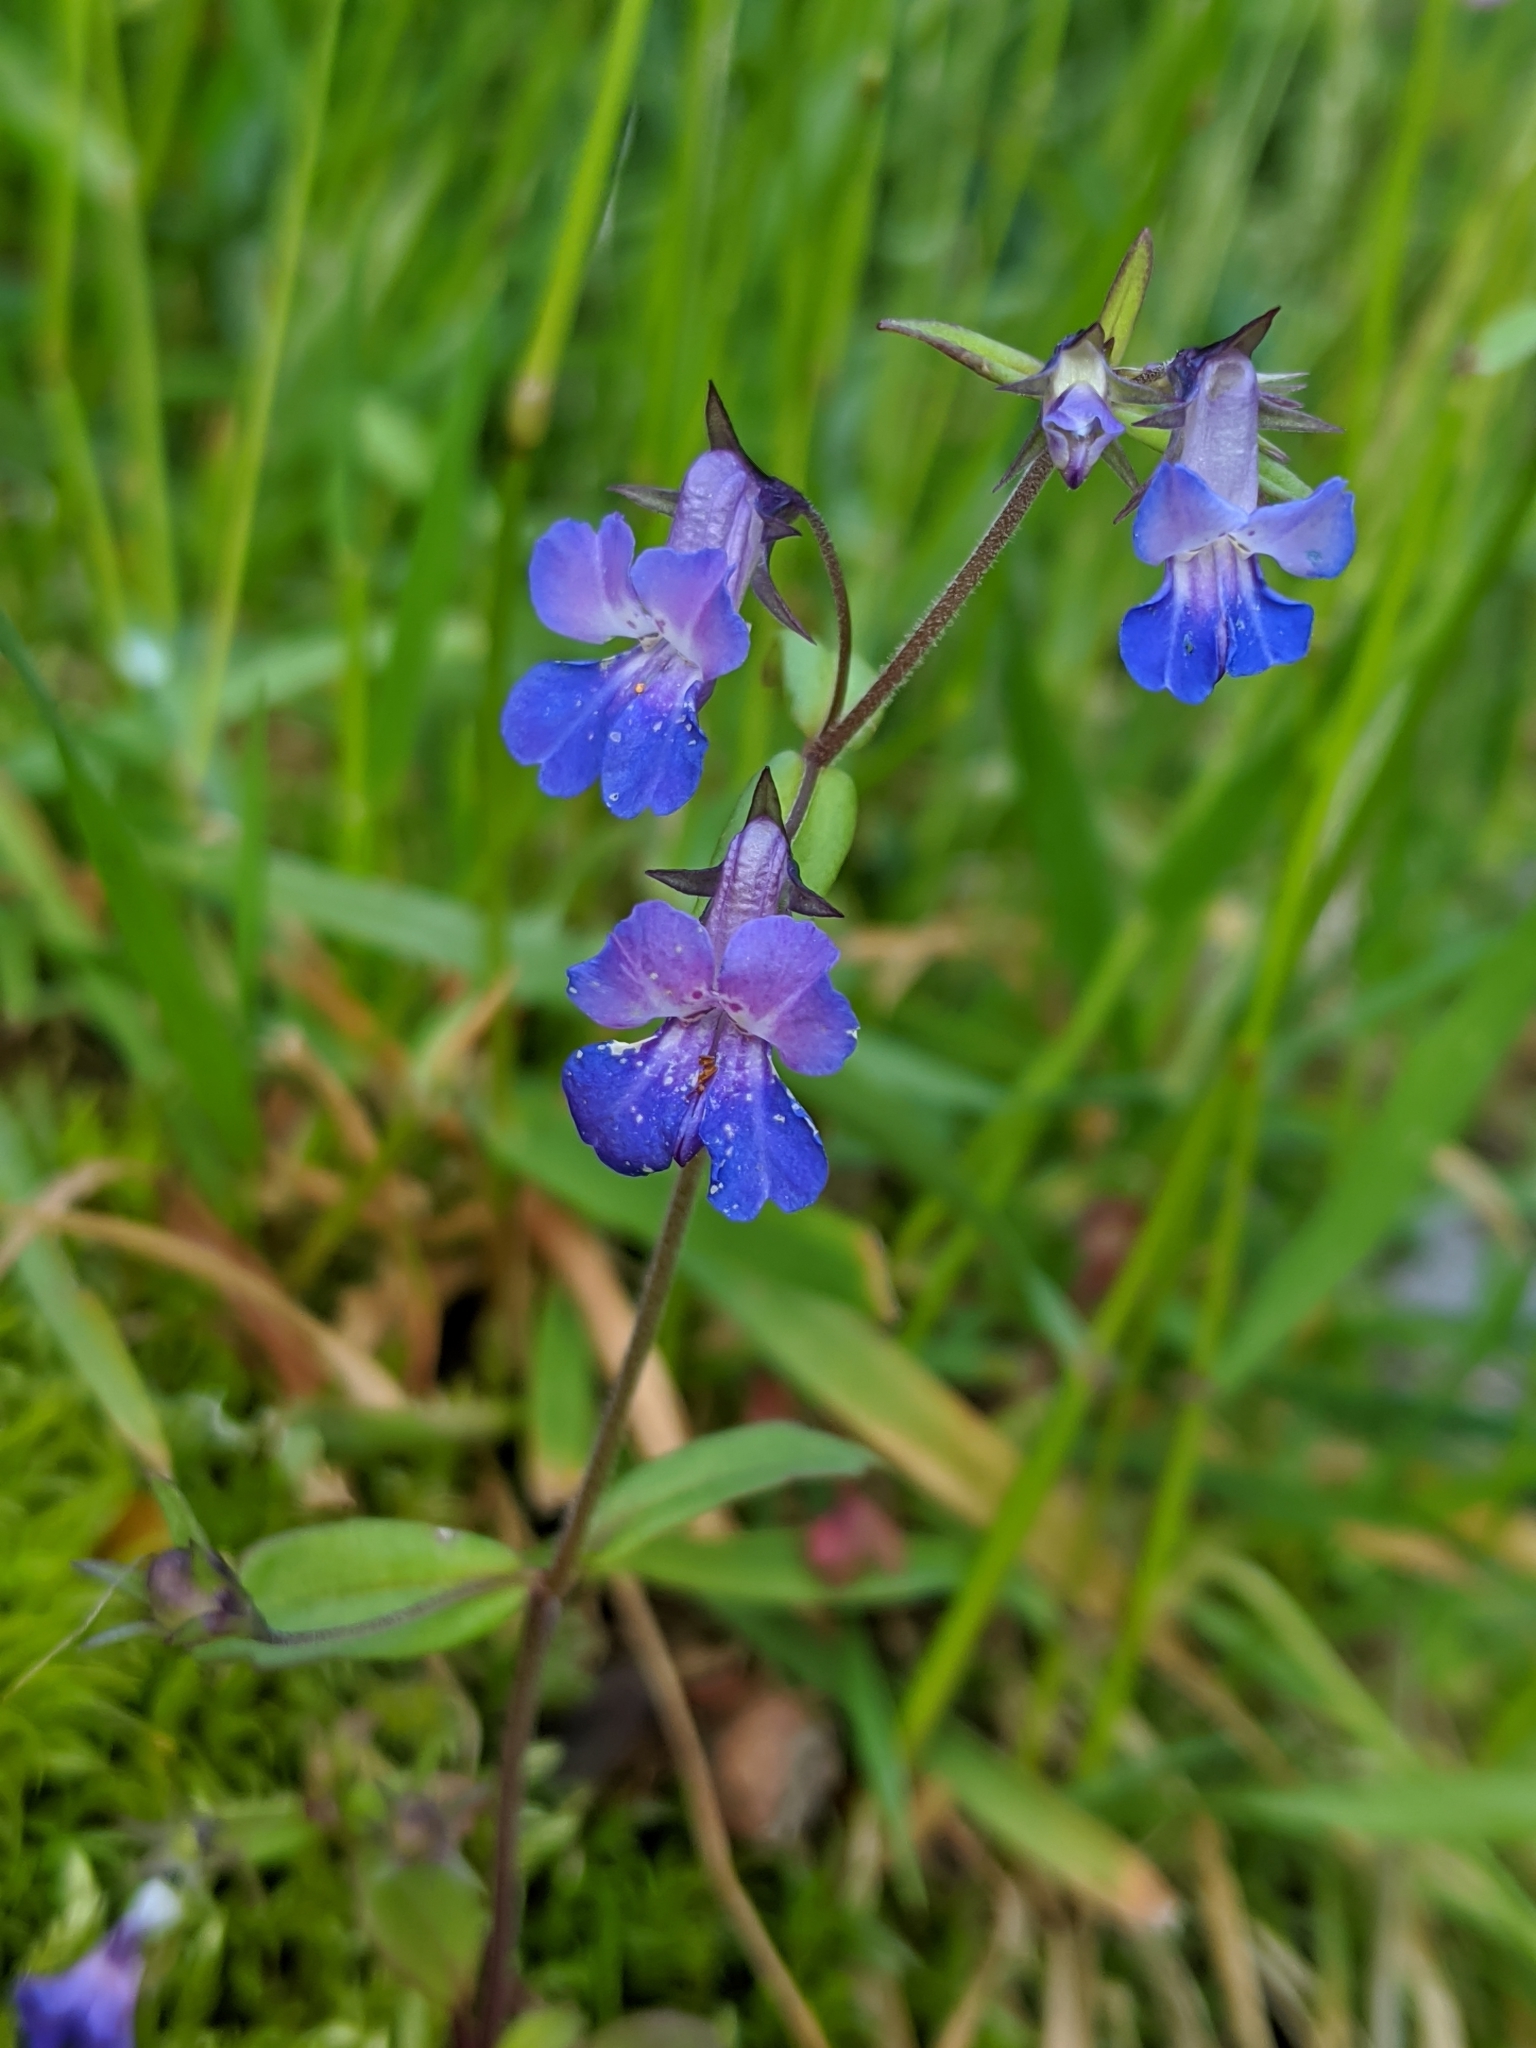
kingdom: Plantae
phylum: Tracheophyta
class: Magnoliopsida
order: Lamiales
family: Plantaginaceae
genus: Collinsia
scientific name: Collinsia grandiflora
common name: Large-flower blue-eyed-mary
